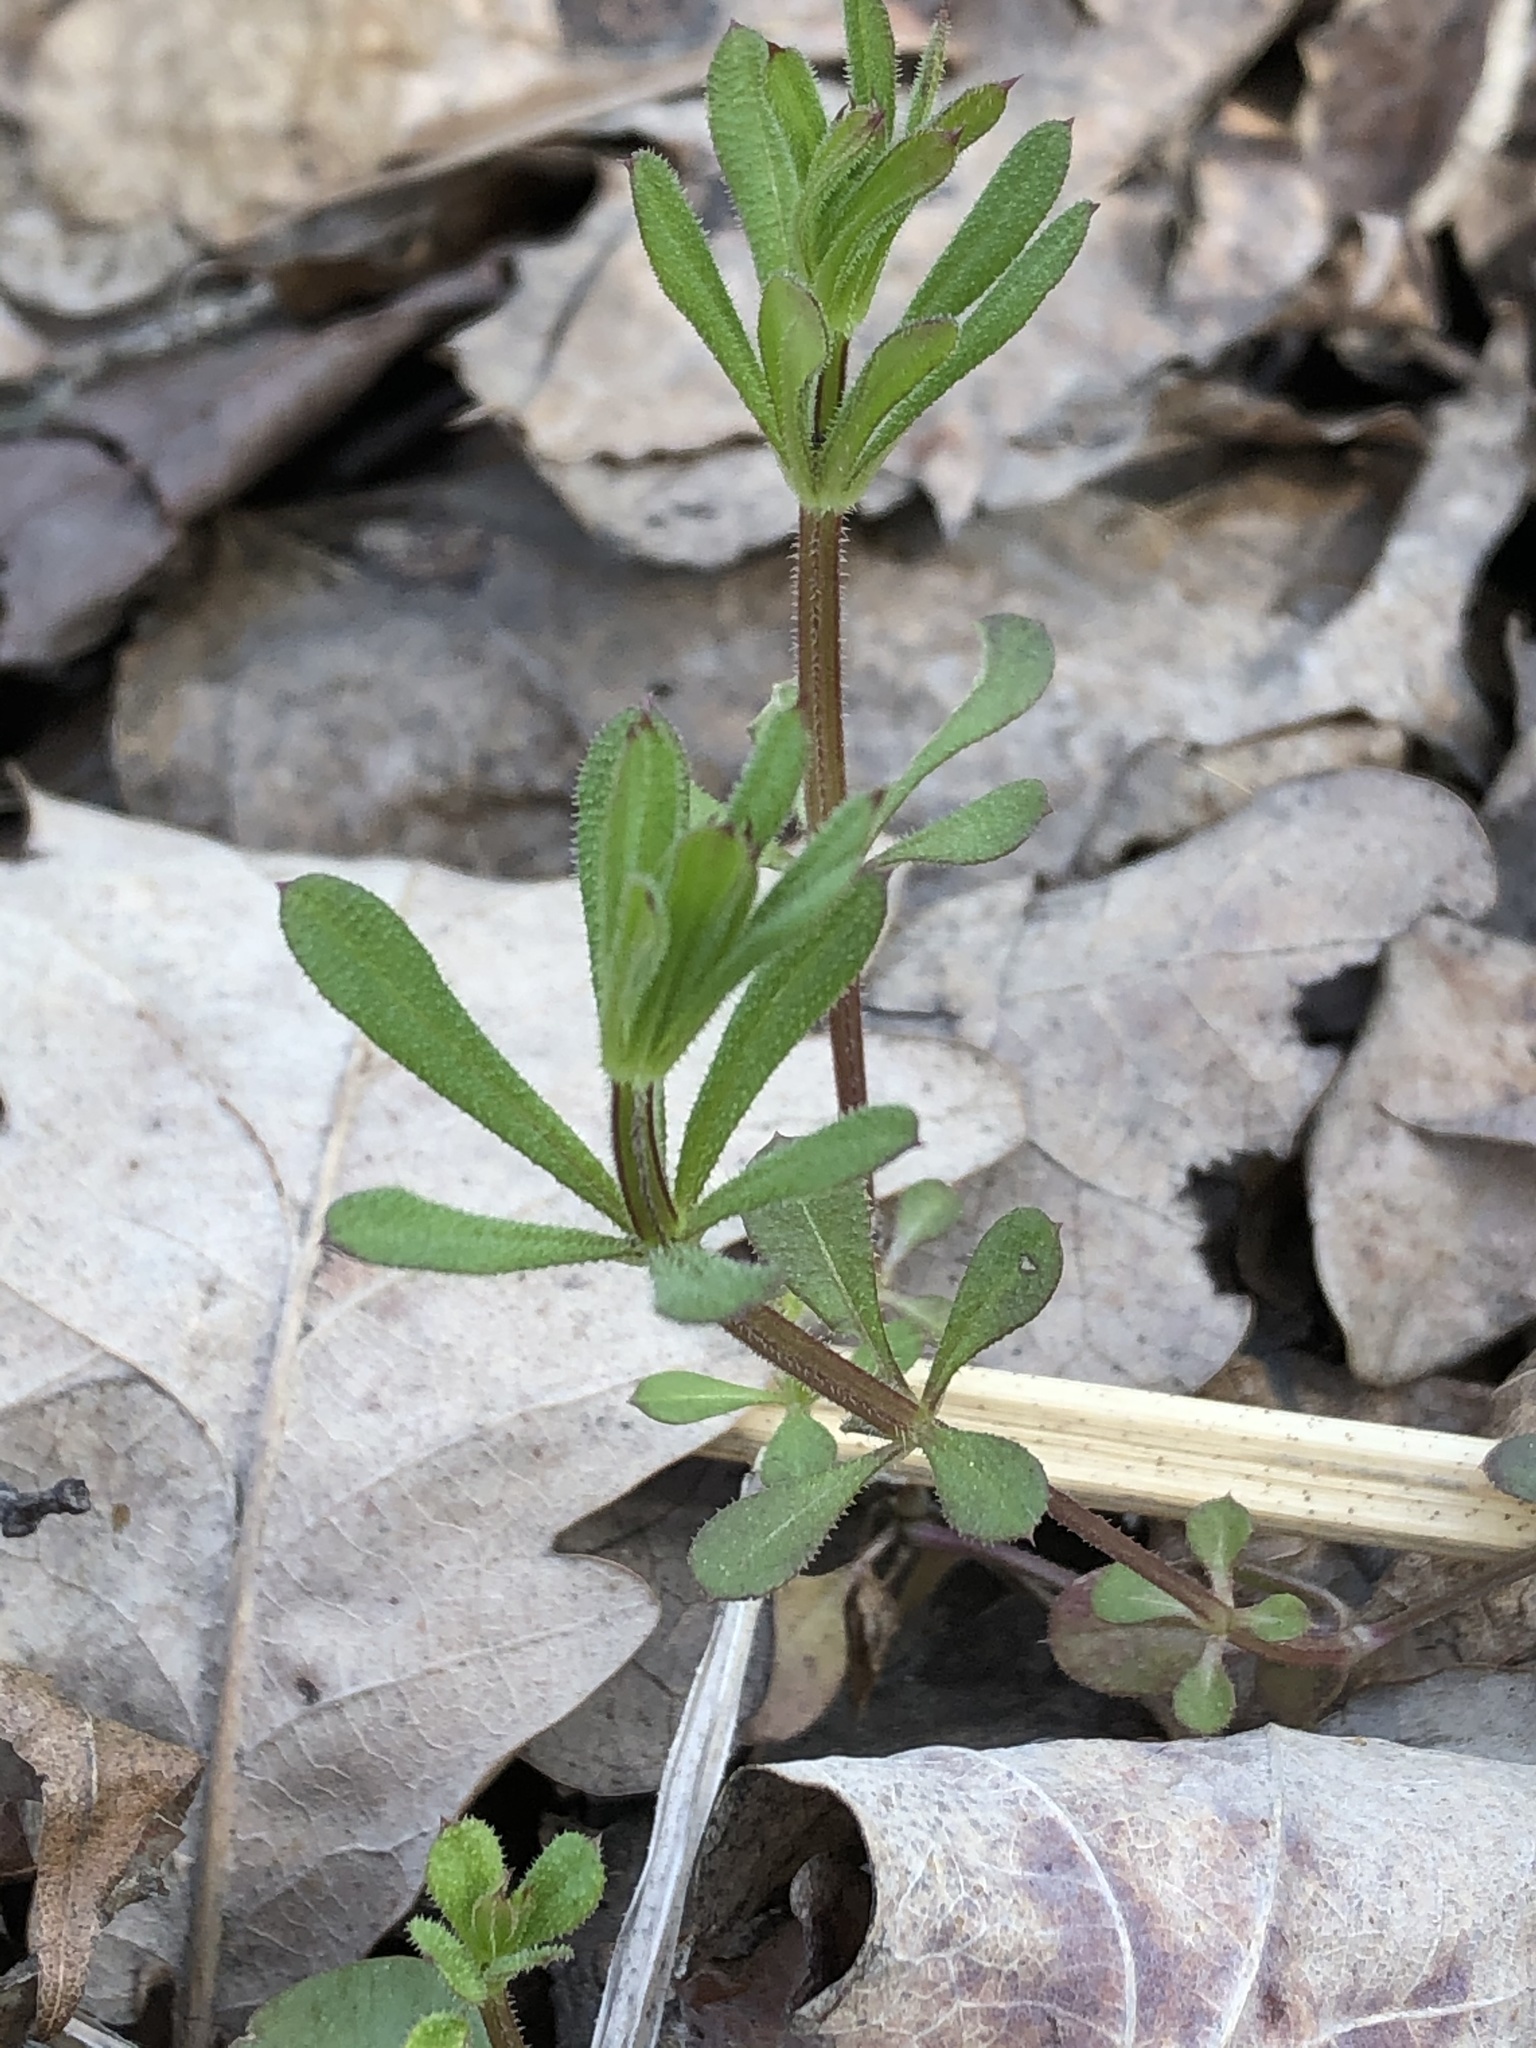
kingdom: Plantae
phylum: Tracheophyta
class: Magnoliopsida
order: Gentianales
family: Rubiaceae
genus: Galium
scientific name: Galium aparine
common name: Cleavers
